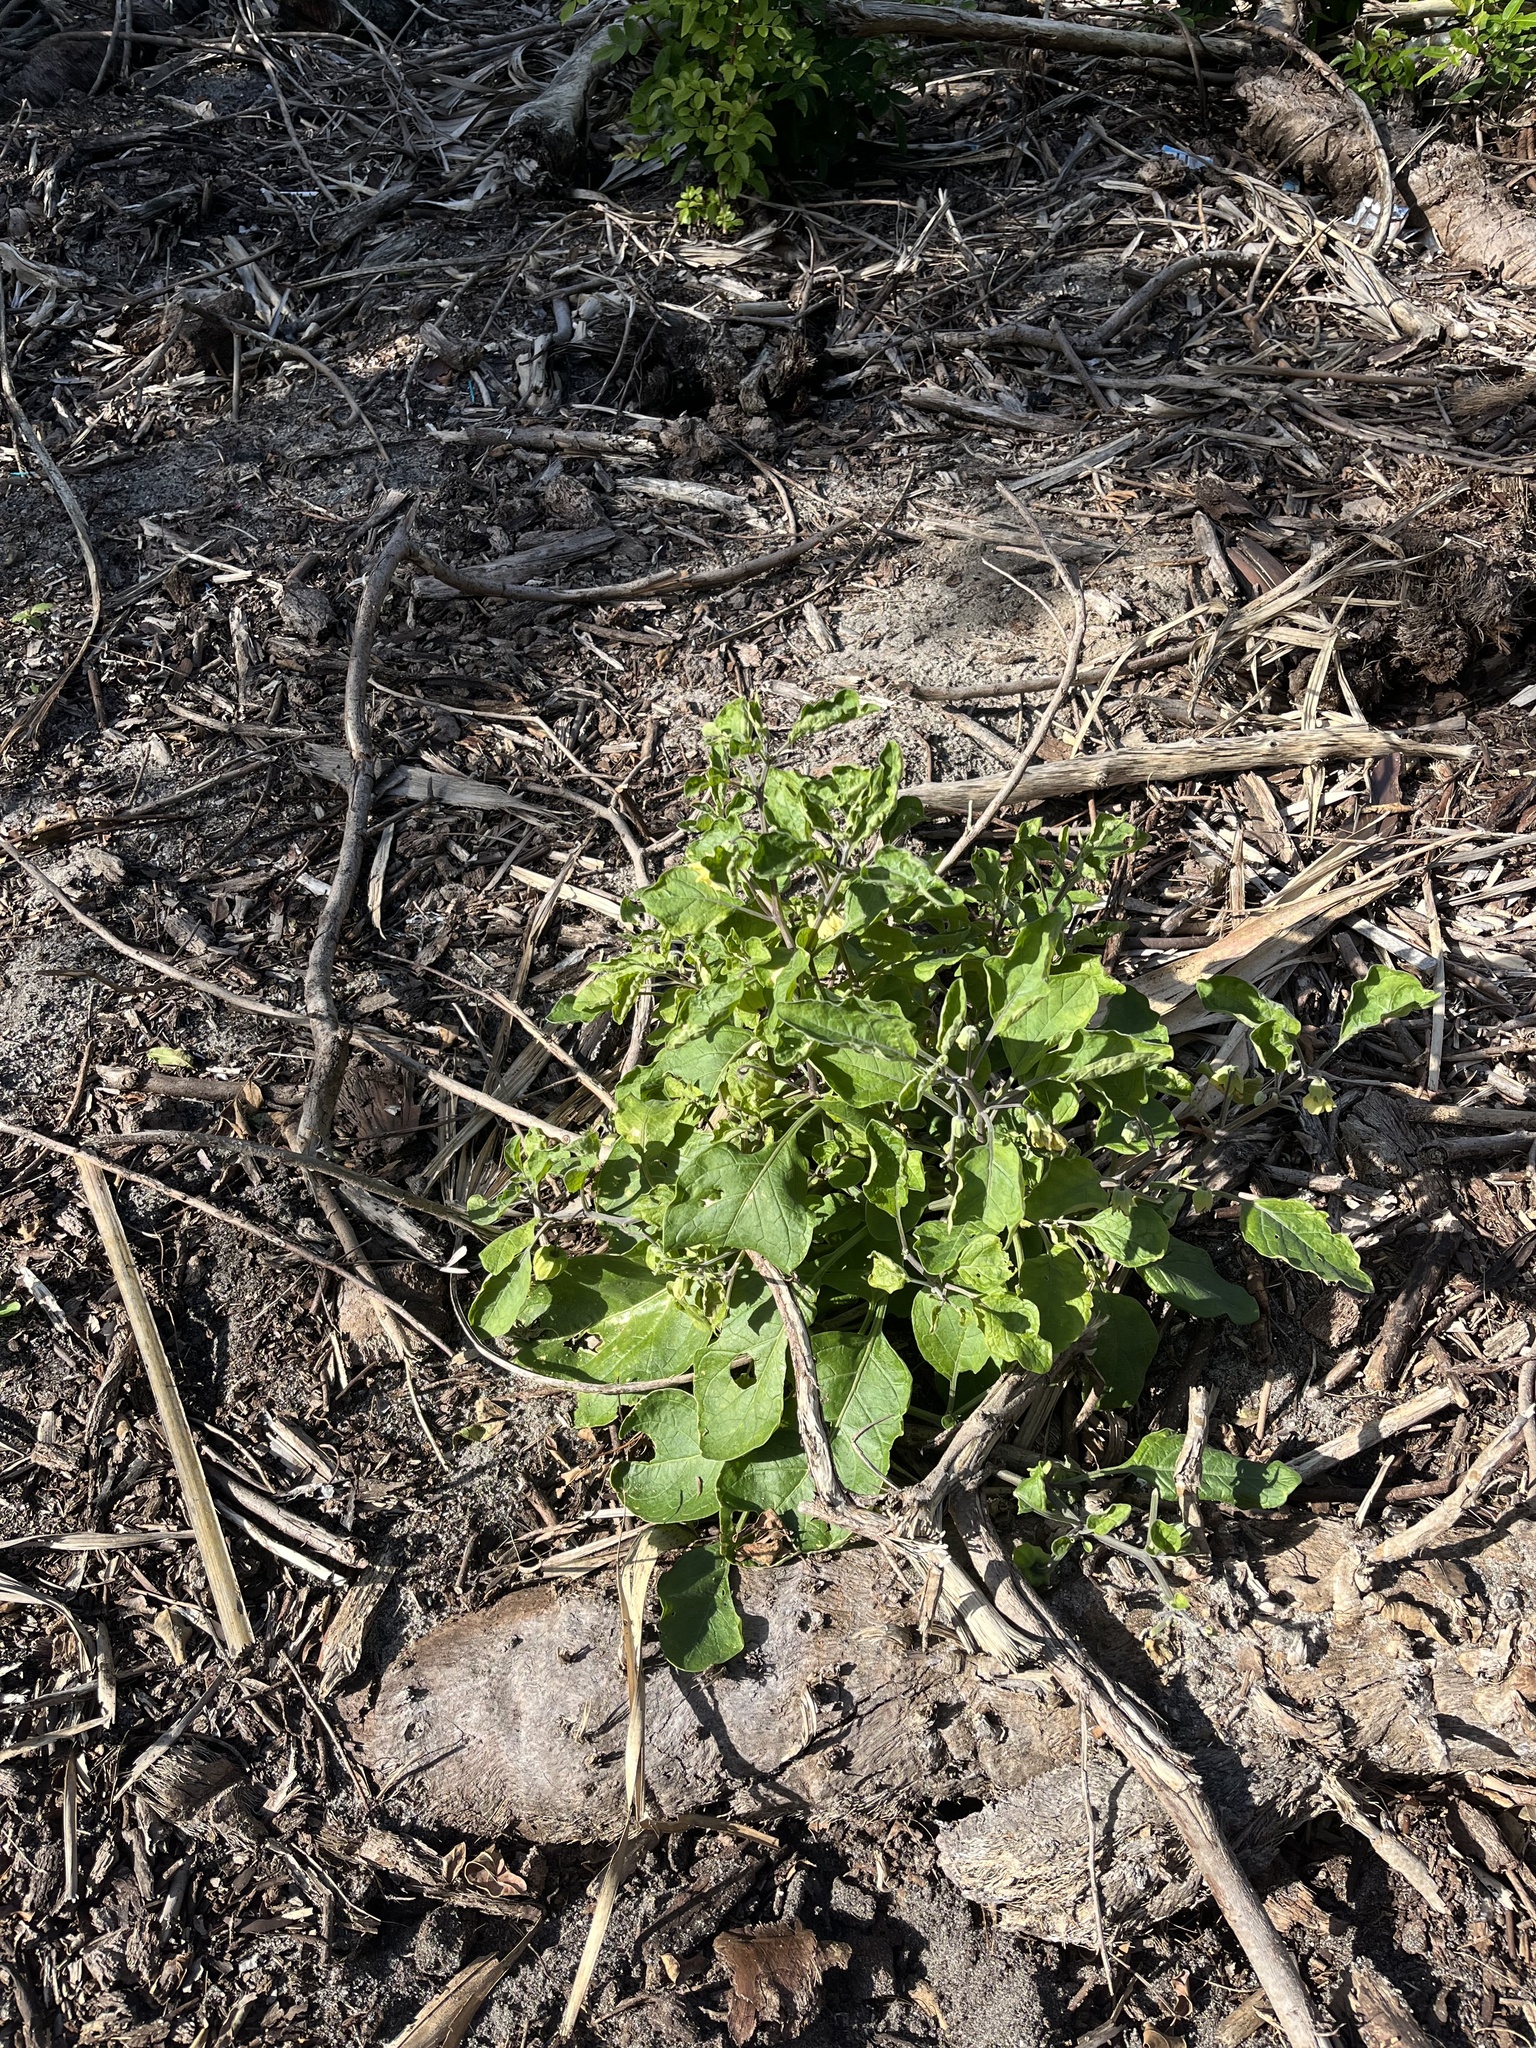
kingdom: Plantae
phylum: Tracheophyta
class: Magnoliopsida
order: Solanales
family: Solanaceae
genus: Physalis
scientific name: Physalis walteri
